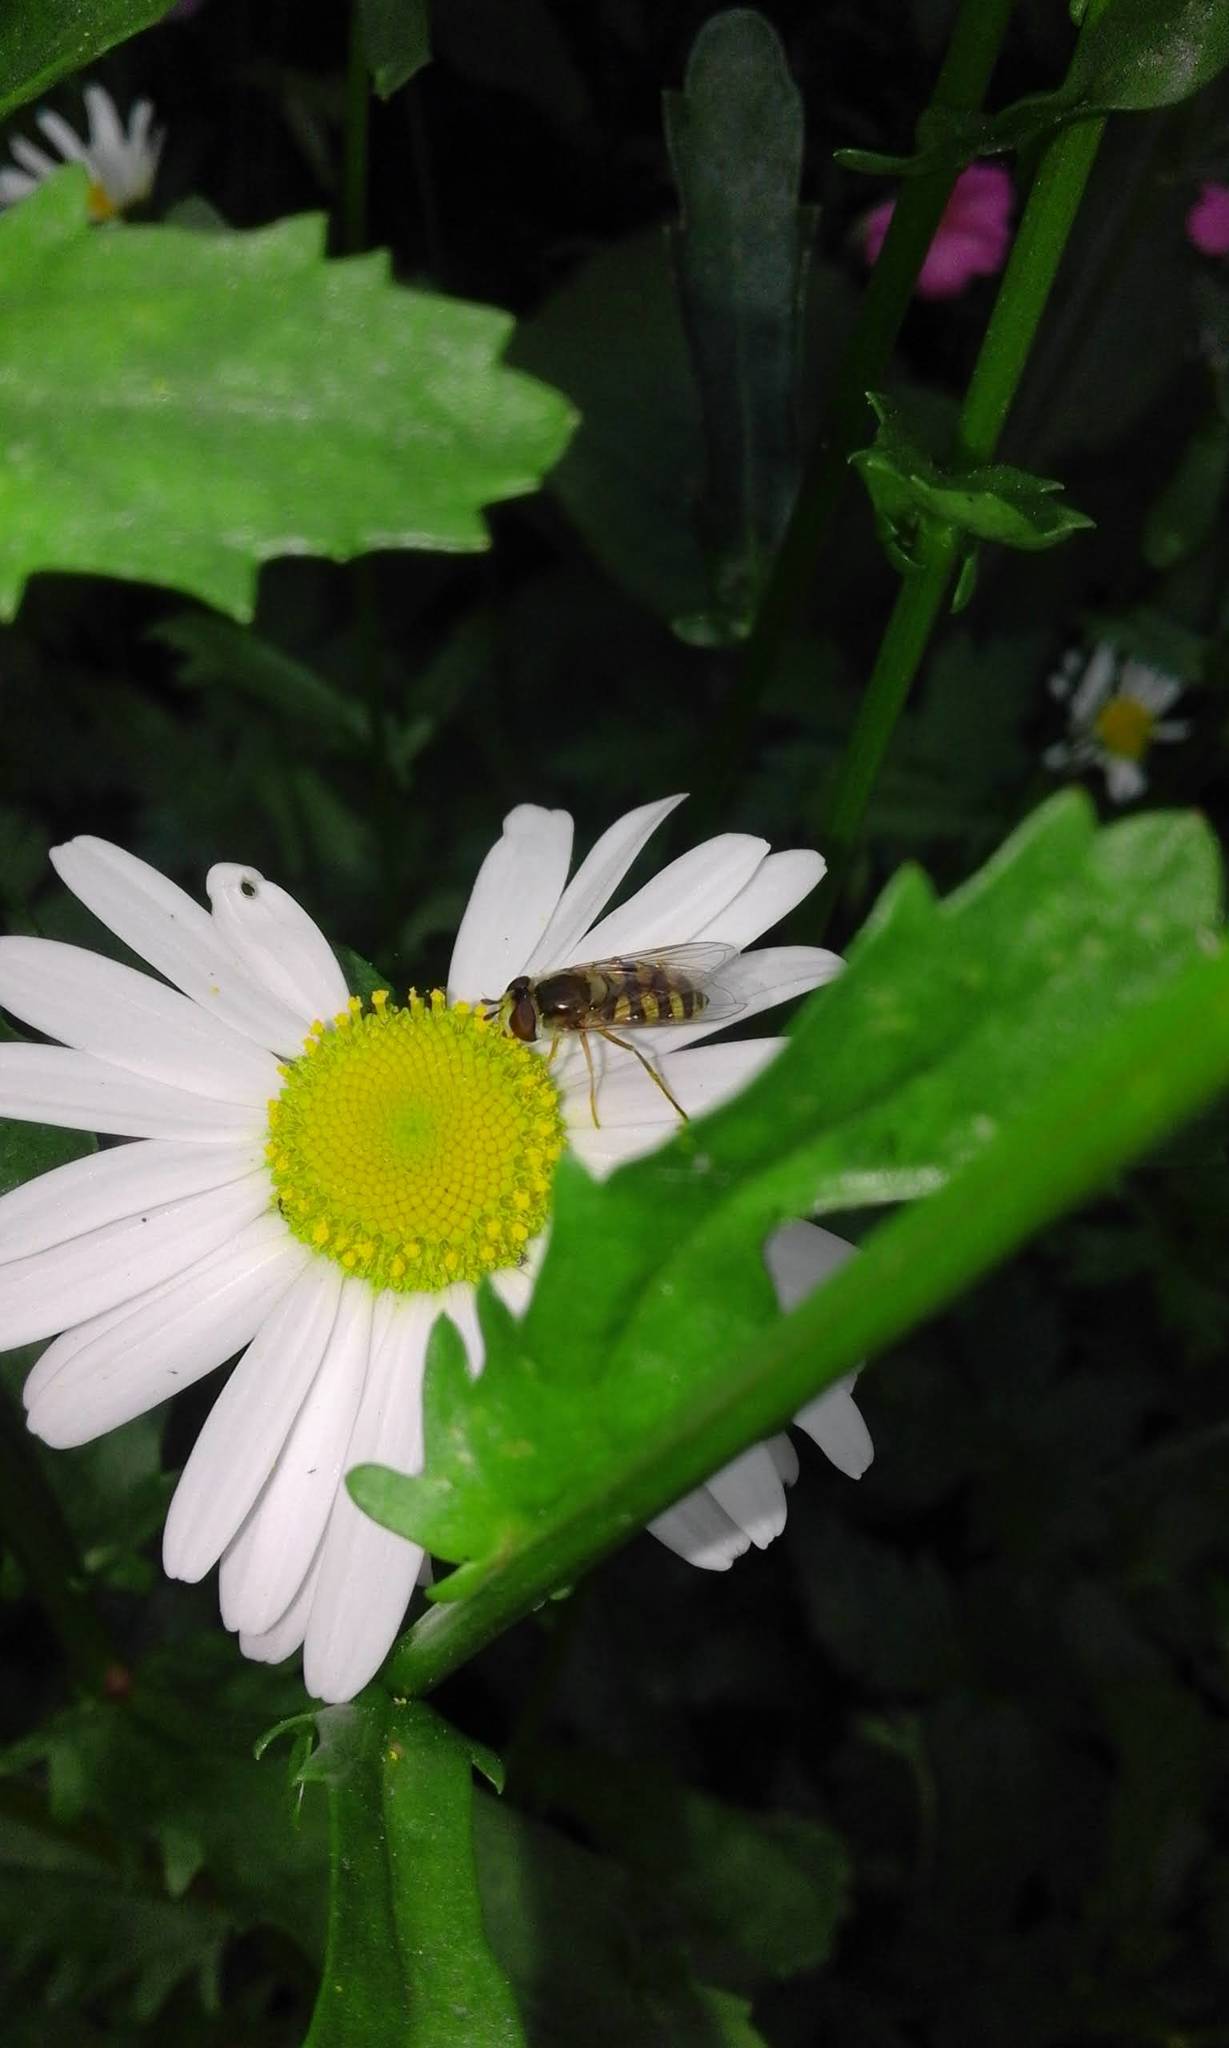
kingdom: Animalia
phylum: Arthropoda
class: Insecta
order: Diptera
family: Syrphidae
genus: Eupeodes
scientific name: Eupeodes corollae
